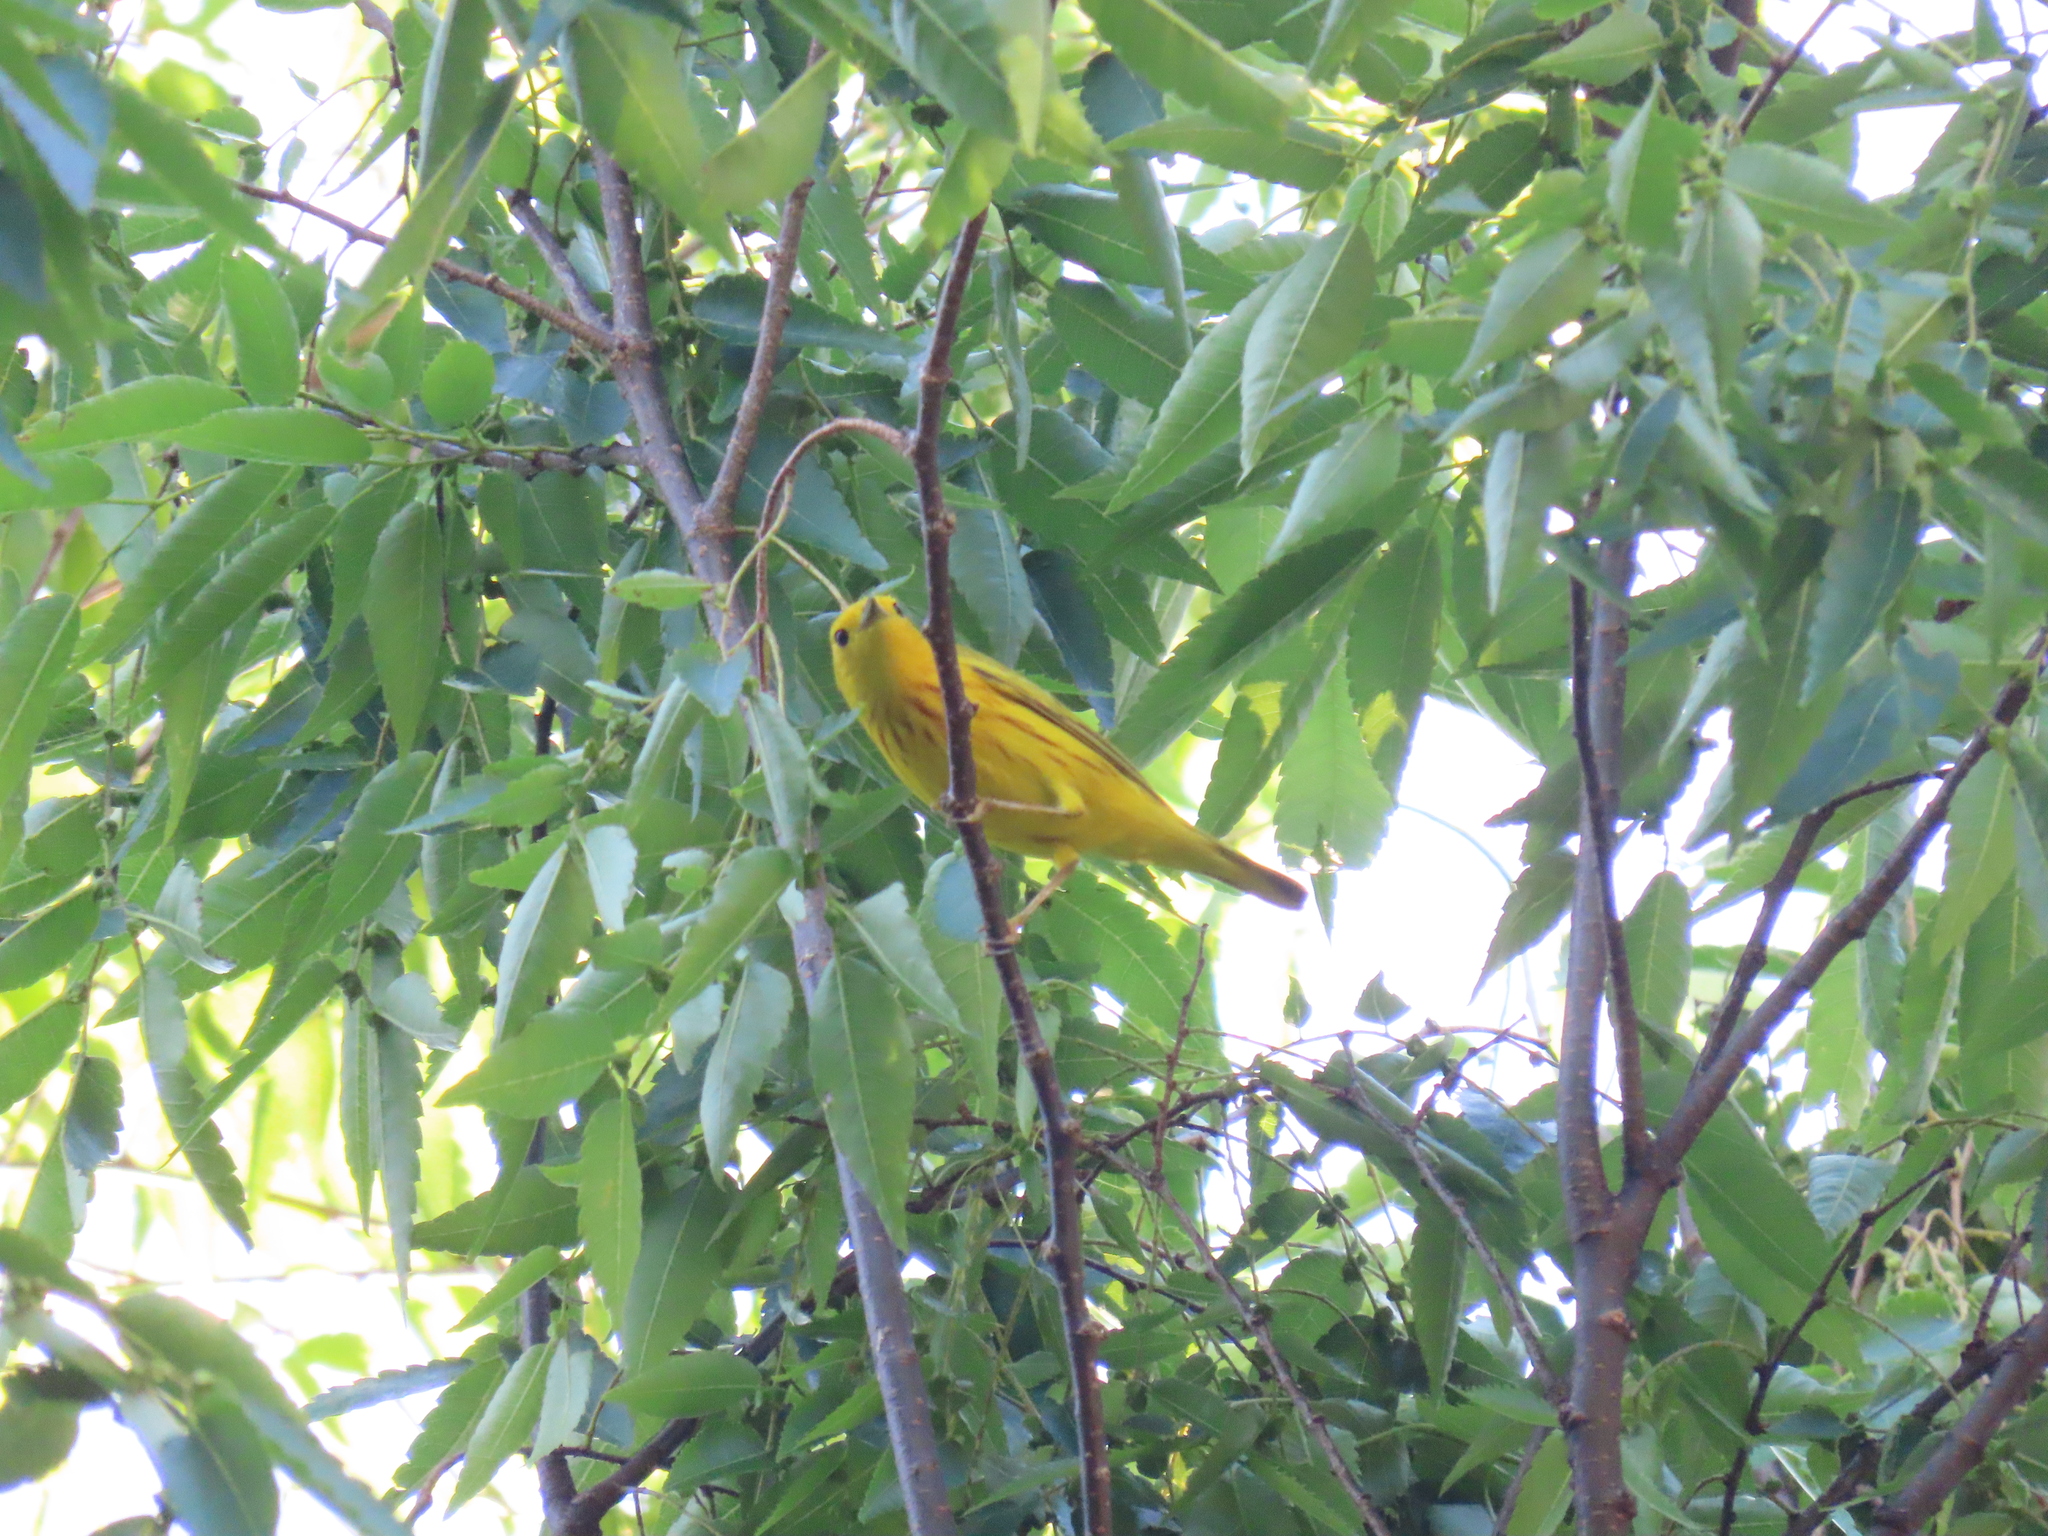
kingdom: Animalia
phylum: Chordata
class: Aves
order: Passeriformes
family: Parulidae
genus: Setophaga
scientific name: Setophaga petechia
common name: Yellow warbler
